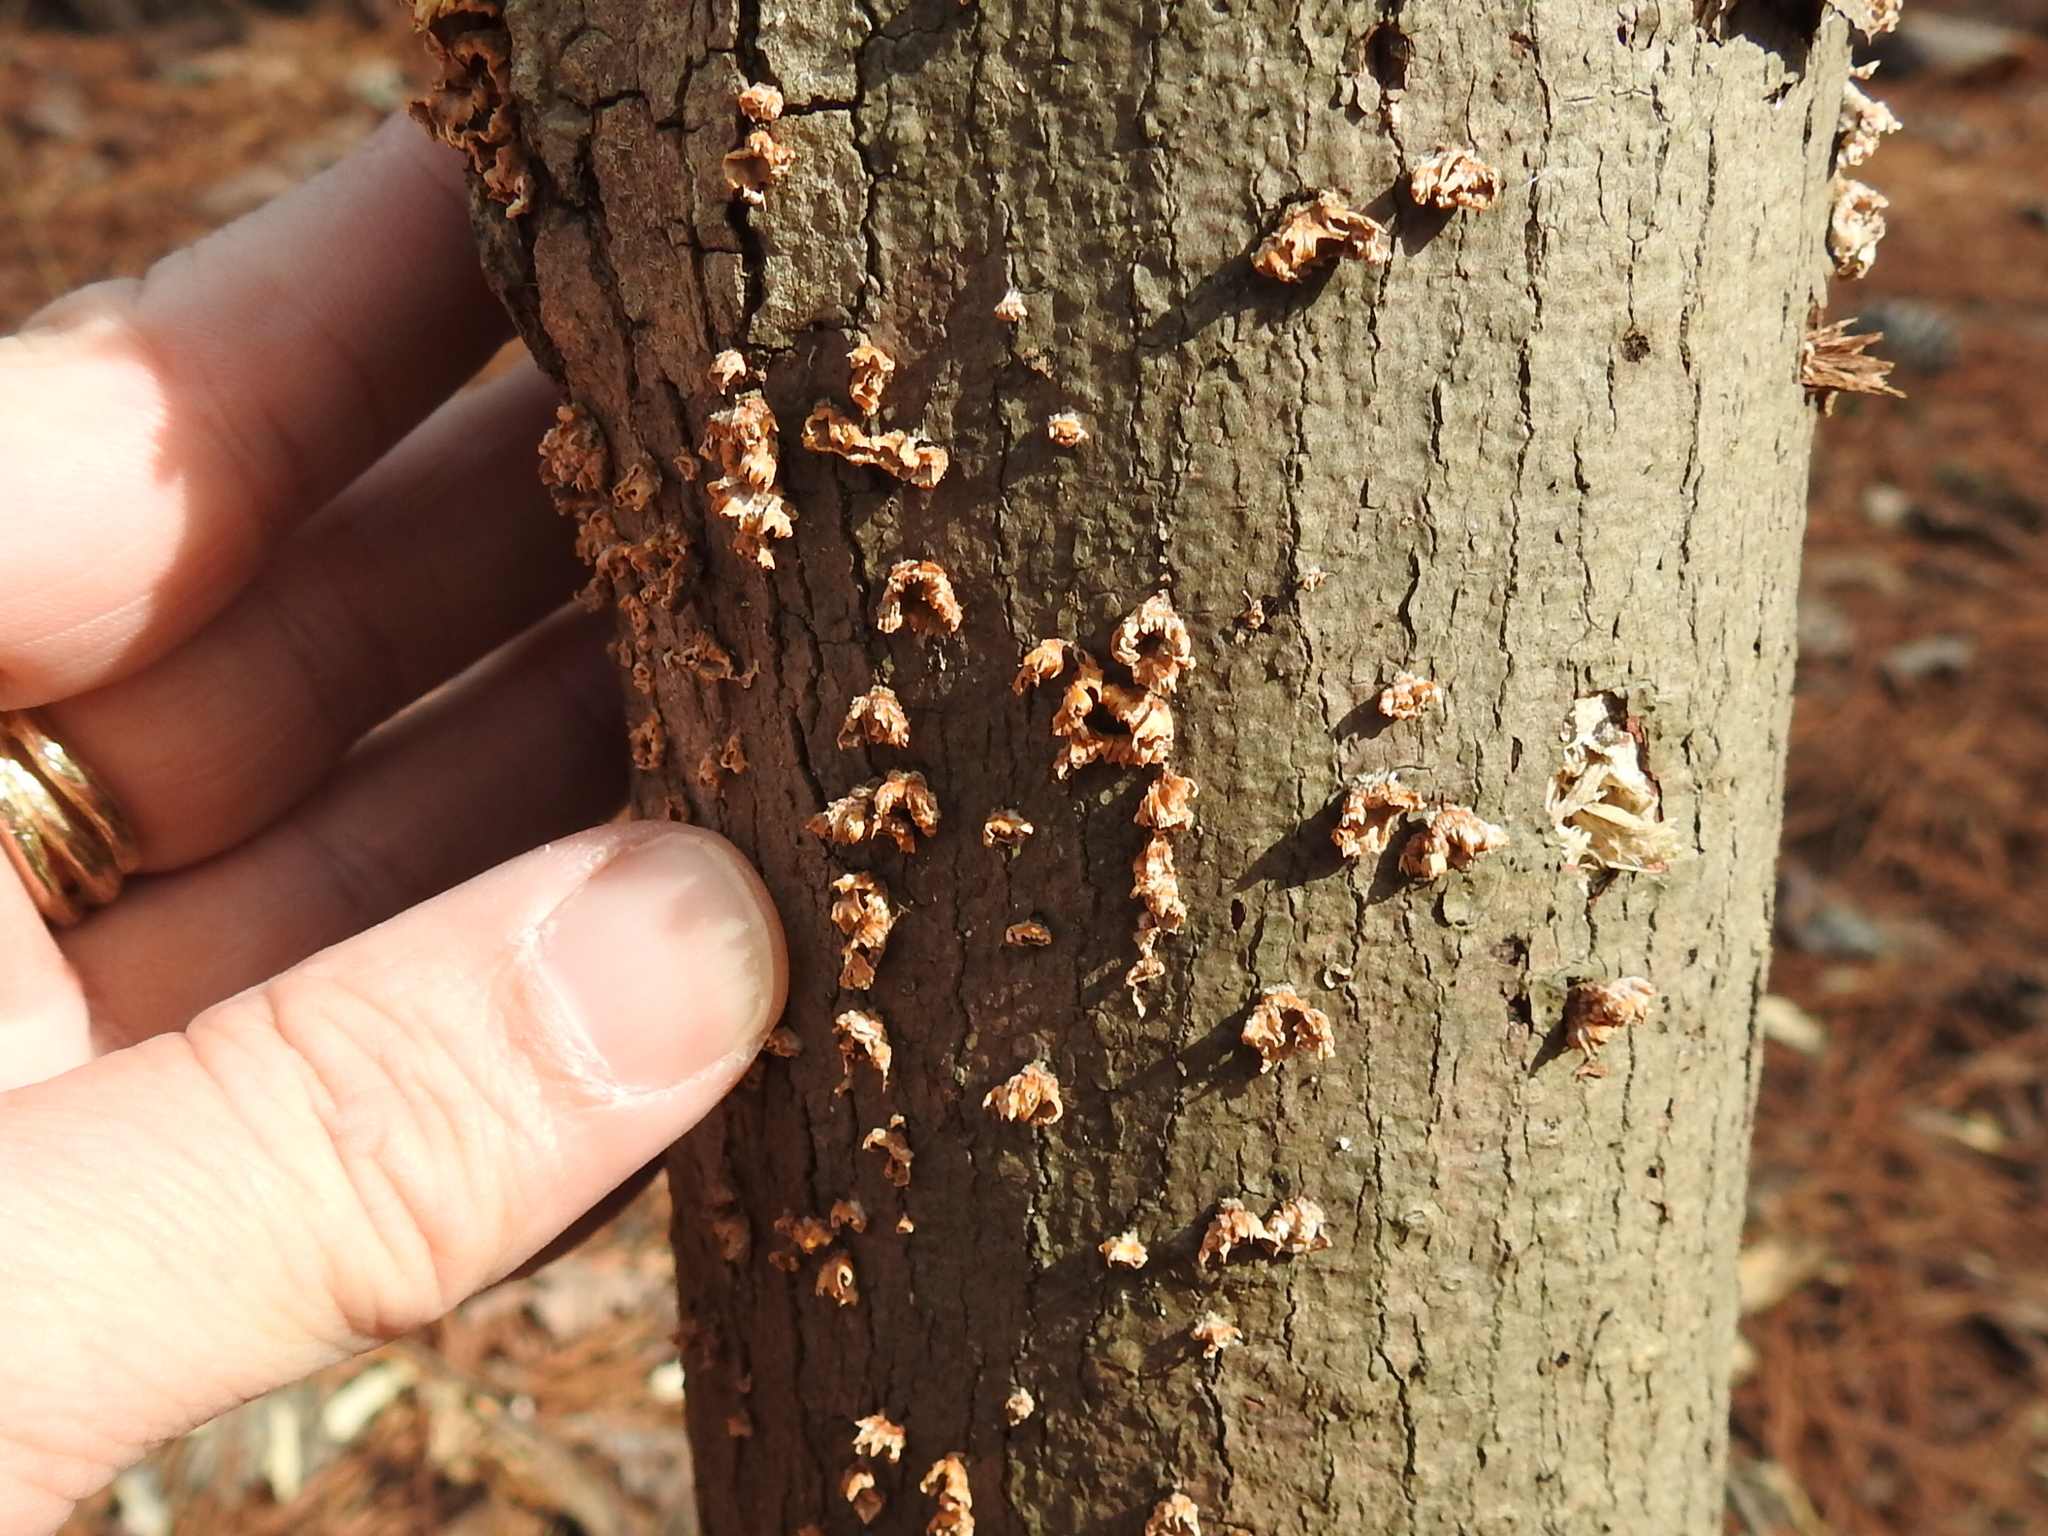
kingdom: Fungi
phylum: Basidiomycota
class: Agaricomycetes
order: Russulales
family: Stereaceae
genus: Stereum
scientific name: Stereum complicatum
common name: Crowded parchment
